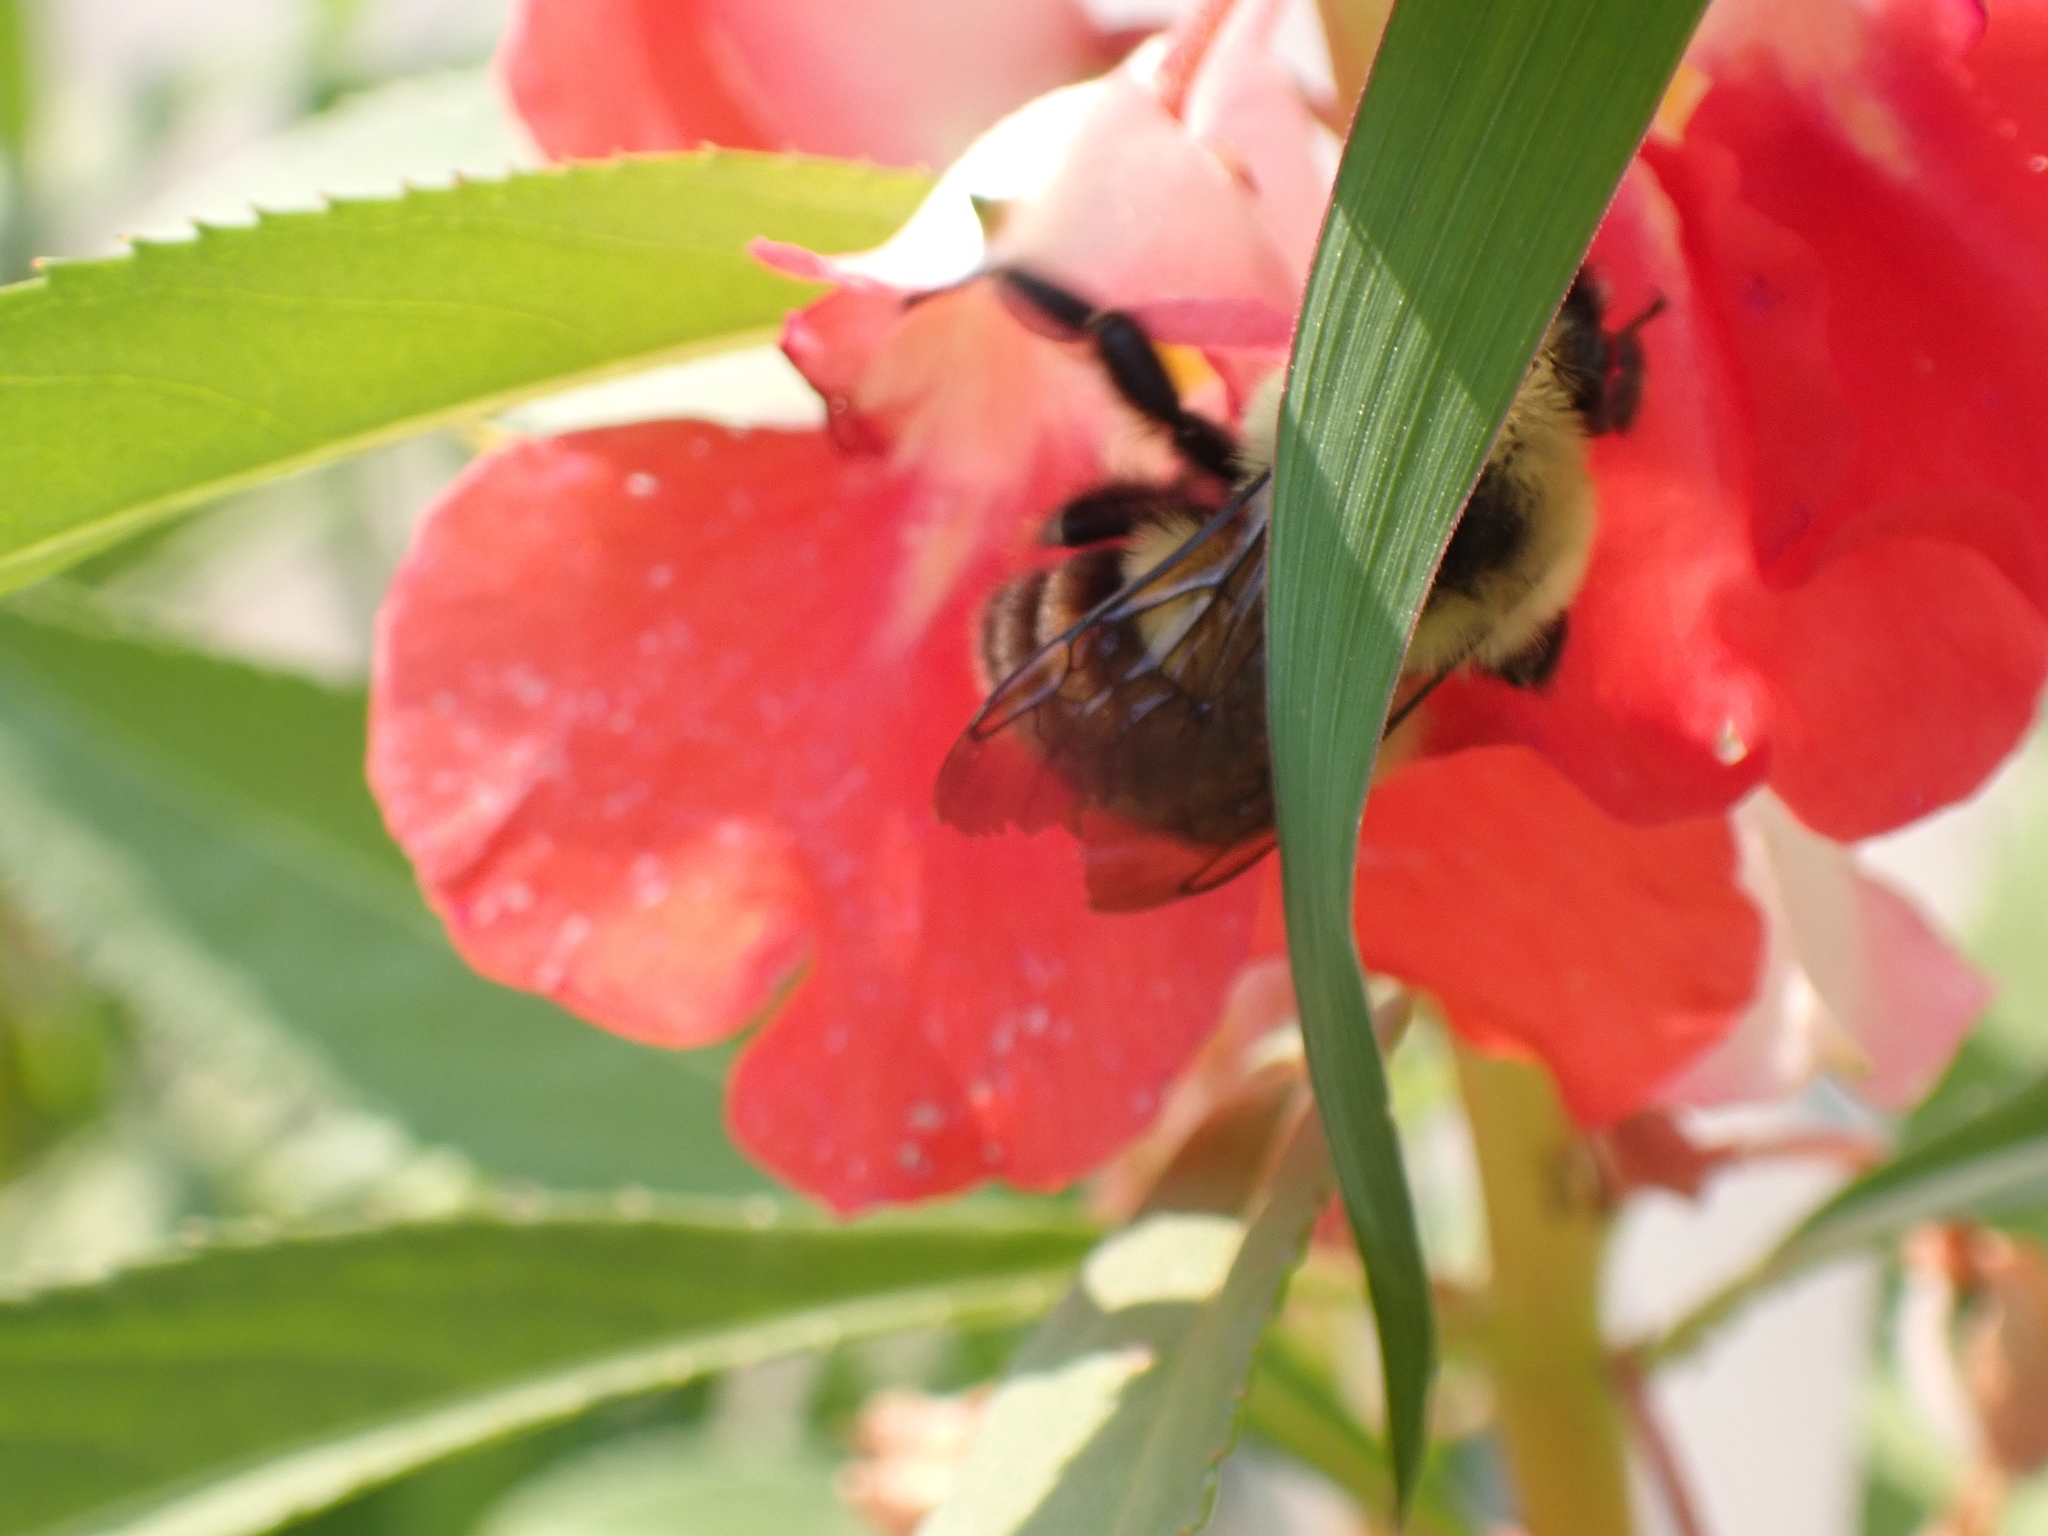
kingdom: Animalia
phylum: Arthropoda
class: Insecta
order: Hymenoptera
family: Apidae
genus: Bombus
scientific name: Bombus bimaculatus
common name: Two-spotted bumble bee
